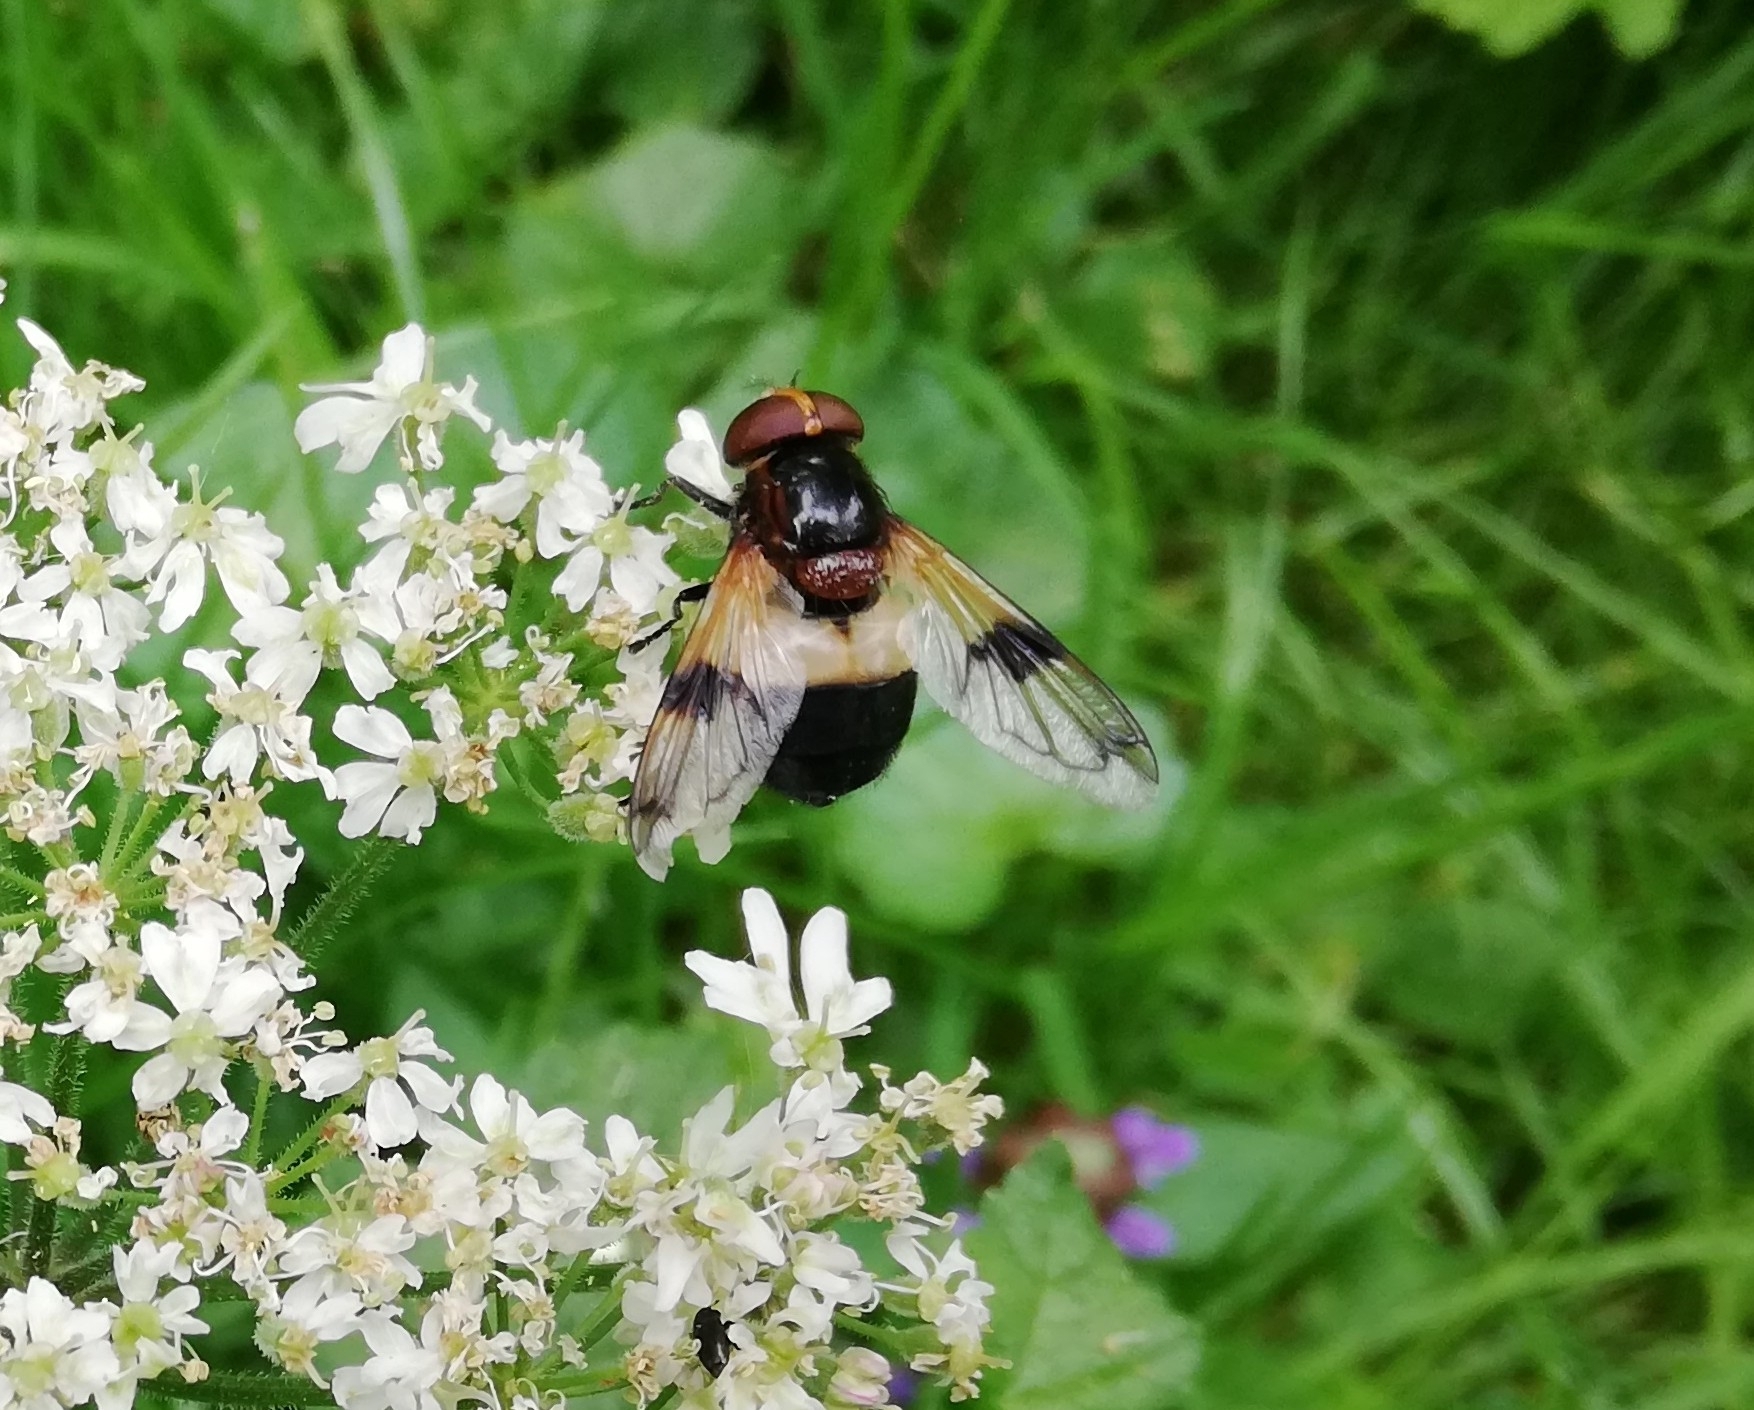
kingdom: Animalia
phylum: Arthropoda
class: Insecta
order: Diptera
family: Syrphidae
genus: Volucella
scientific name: Volucella pellucens
